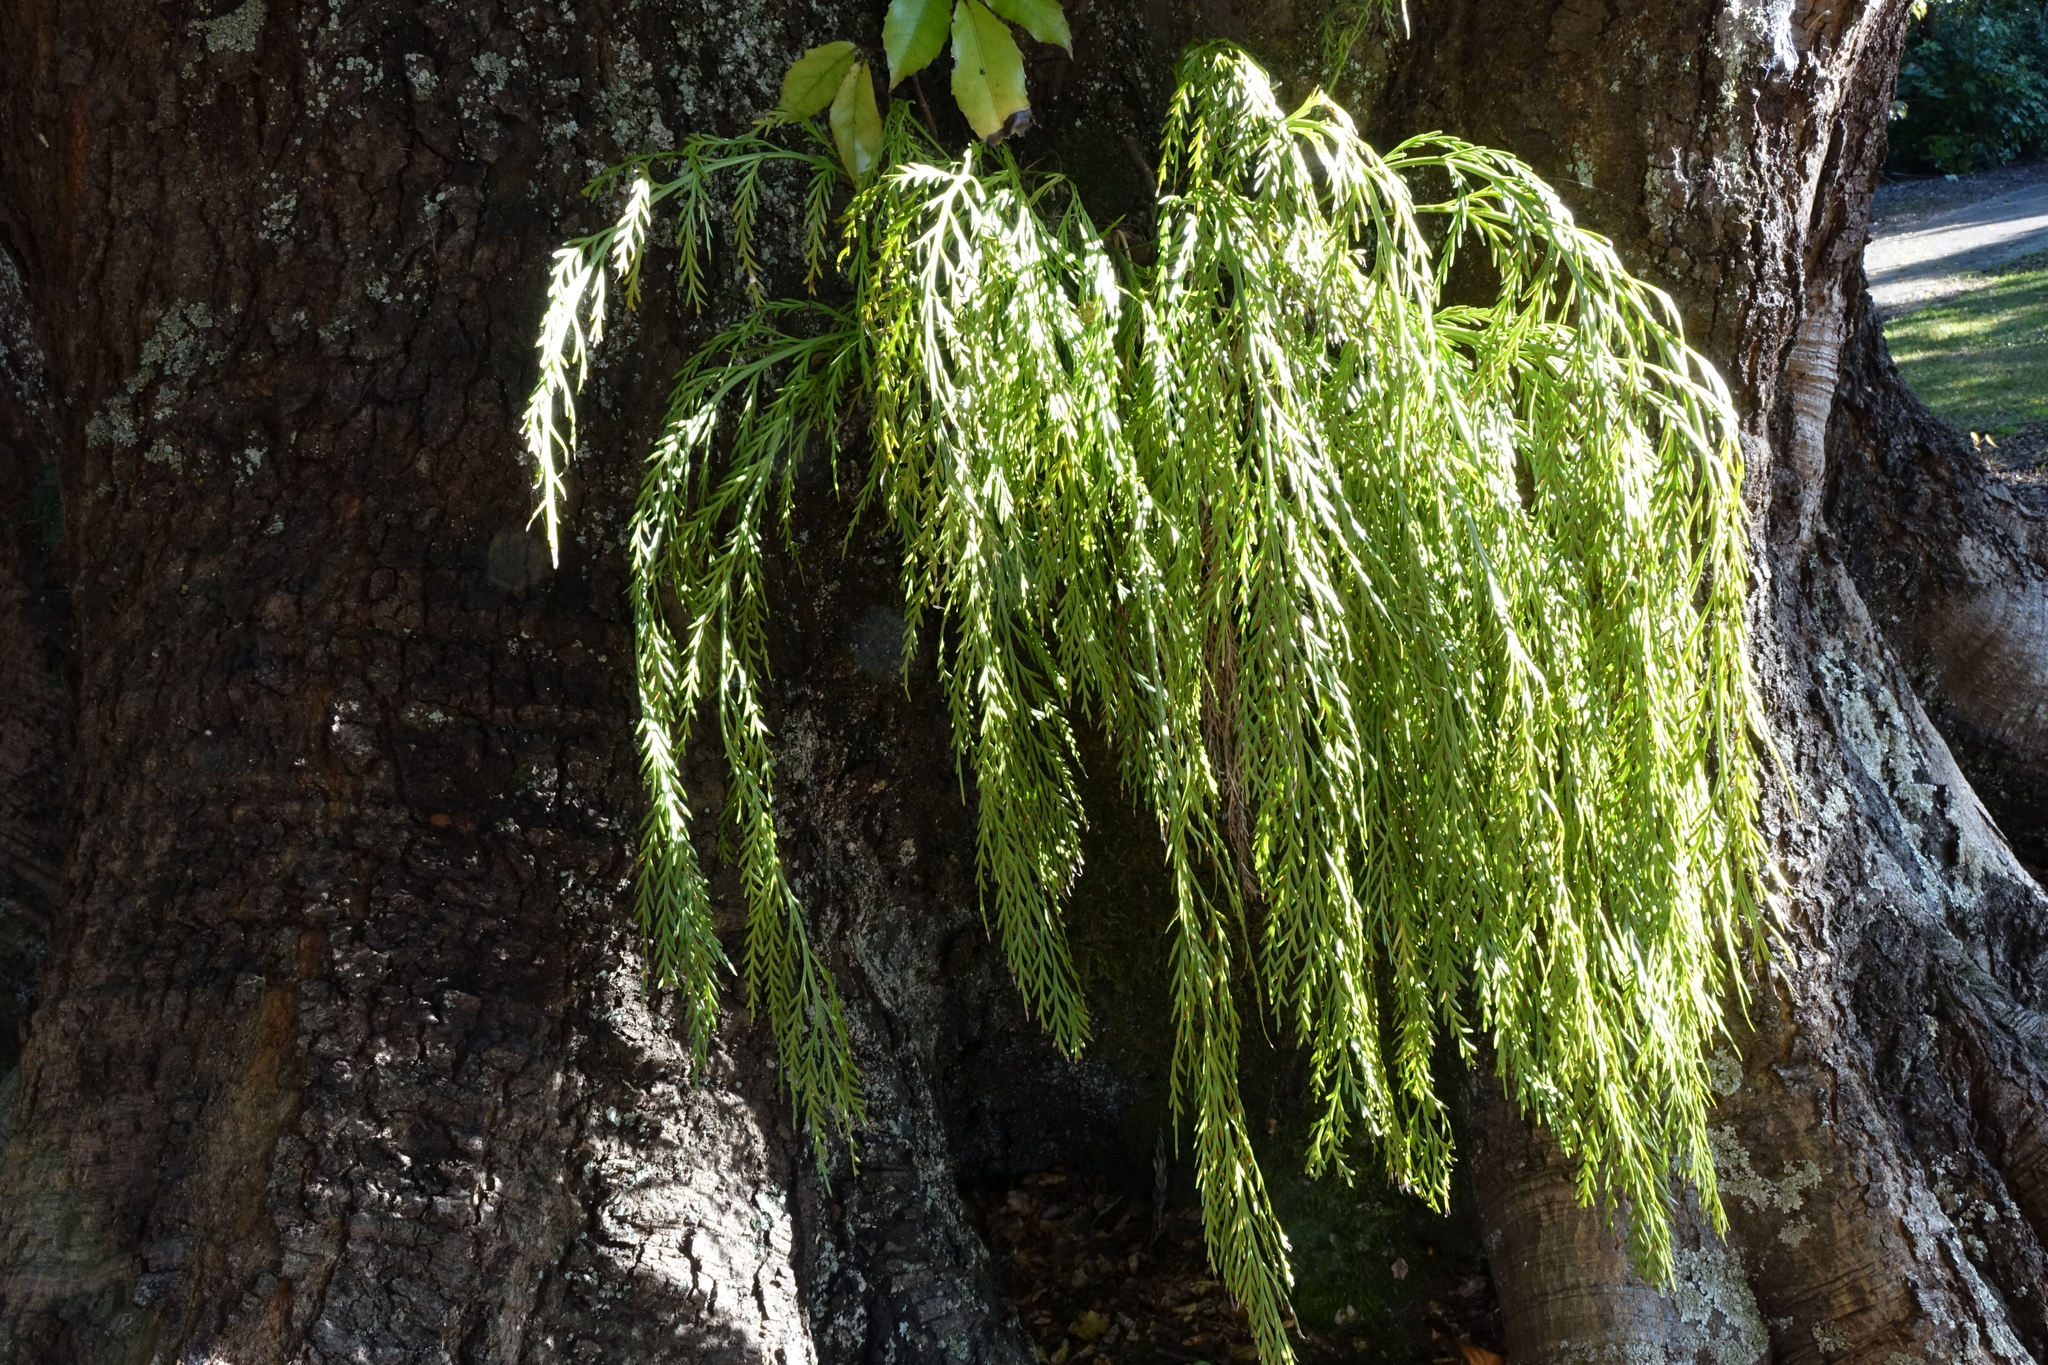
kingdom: Plantae
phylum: Tracheophyta
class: Polypodiopsida
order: Polypodiales
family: Aspleniaceae
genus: Asplenium
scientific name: Asplenium flaccidum
